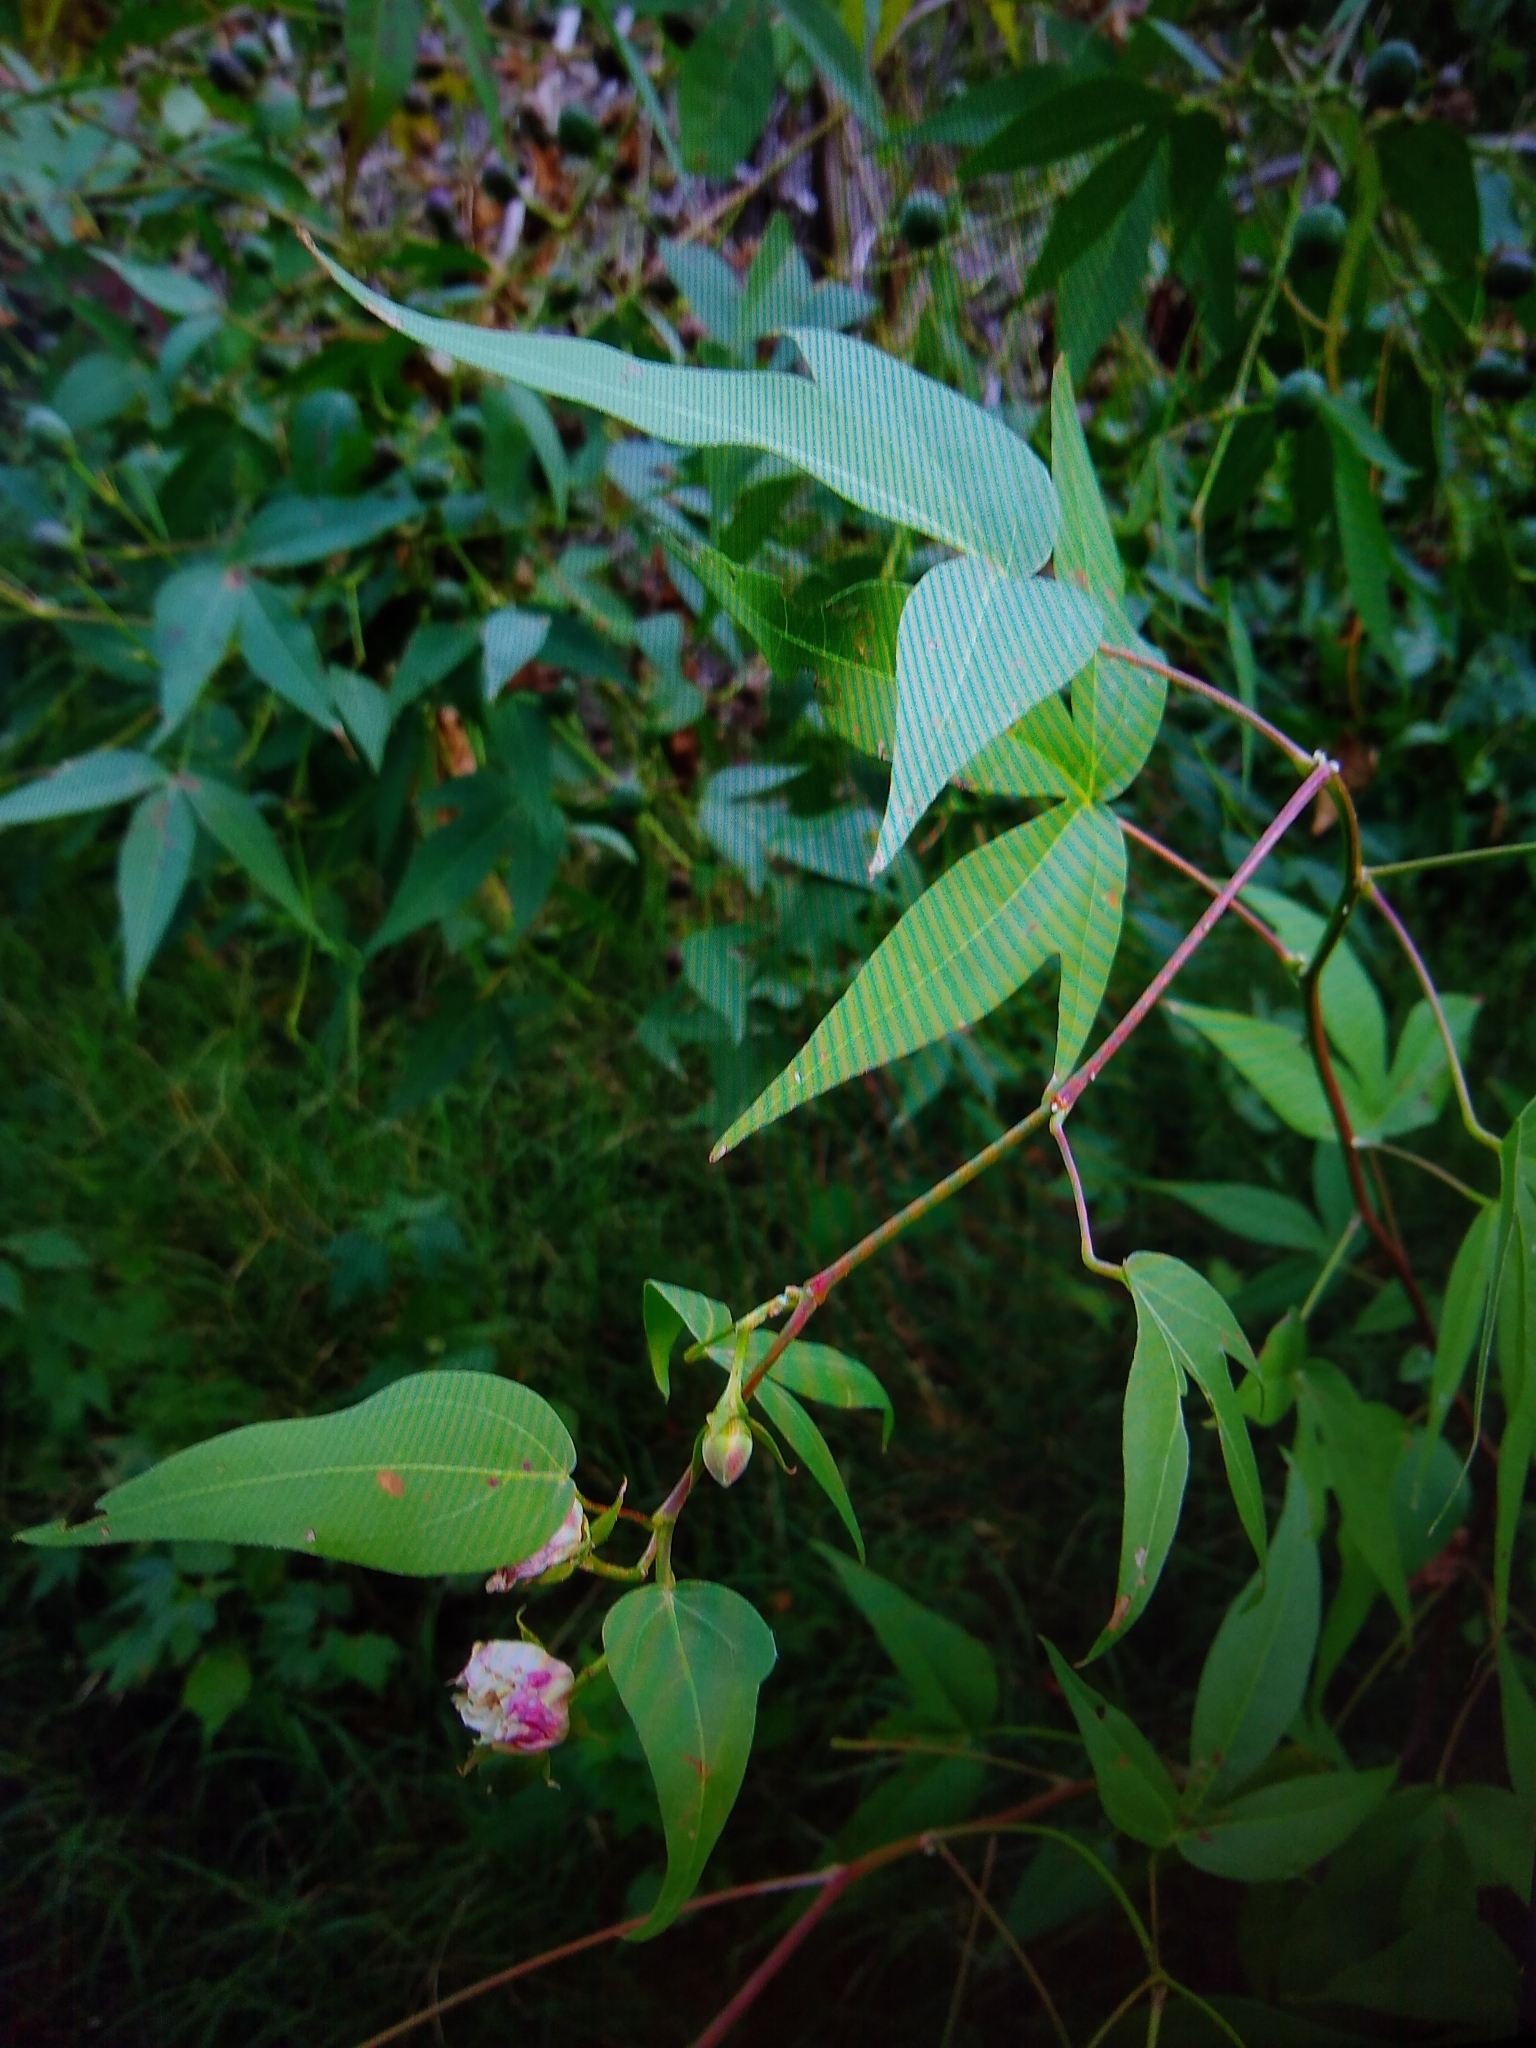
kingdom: Plantae
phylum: Tracheophyta
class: Magnoliopsida
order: Malvales
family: Malvaceae
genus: Gossypium
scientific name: Gossypium thurberi
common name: Desert cotton
